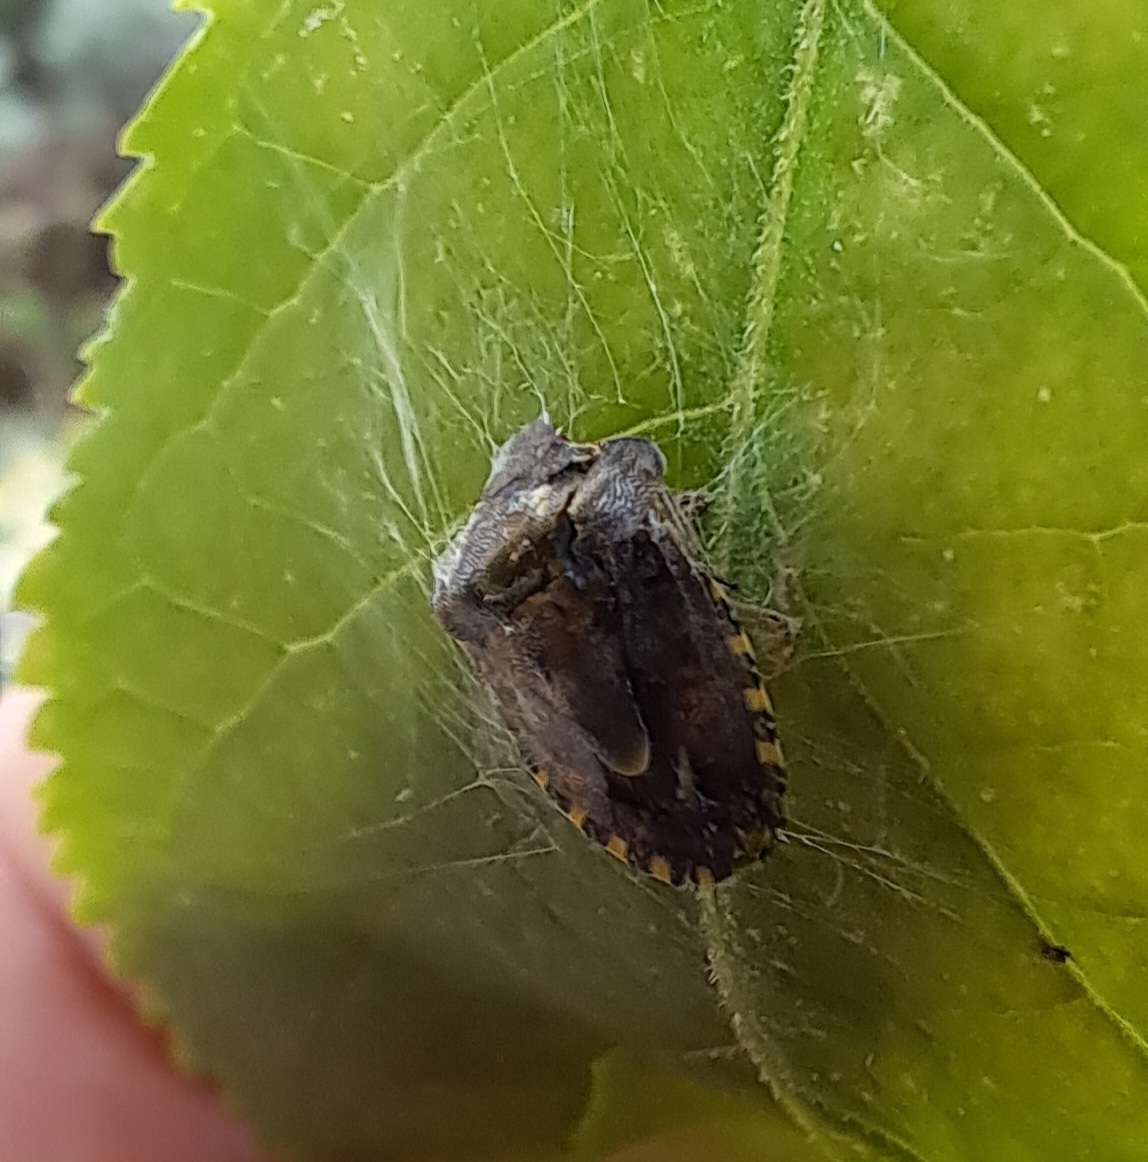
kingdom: Animalia
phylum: Arthropoda
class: Insecta
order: Hemiptera
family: Pentatomidae
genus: Holcostethus
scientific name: Holcostethus strictus
